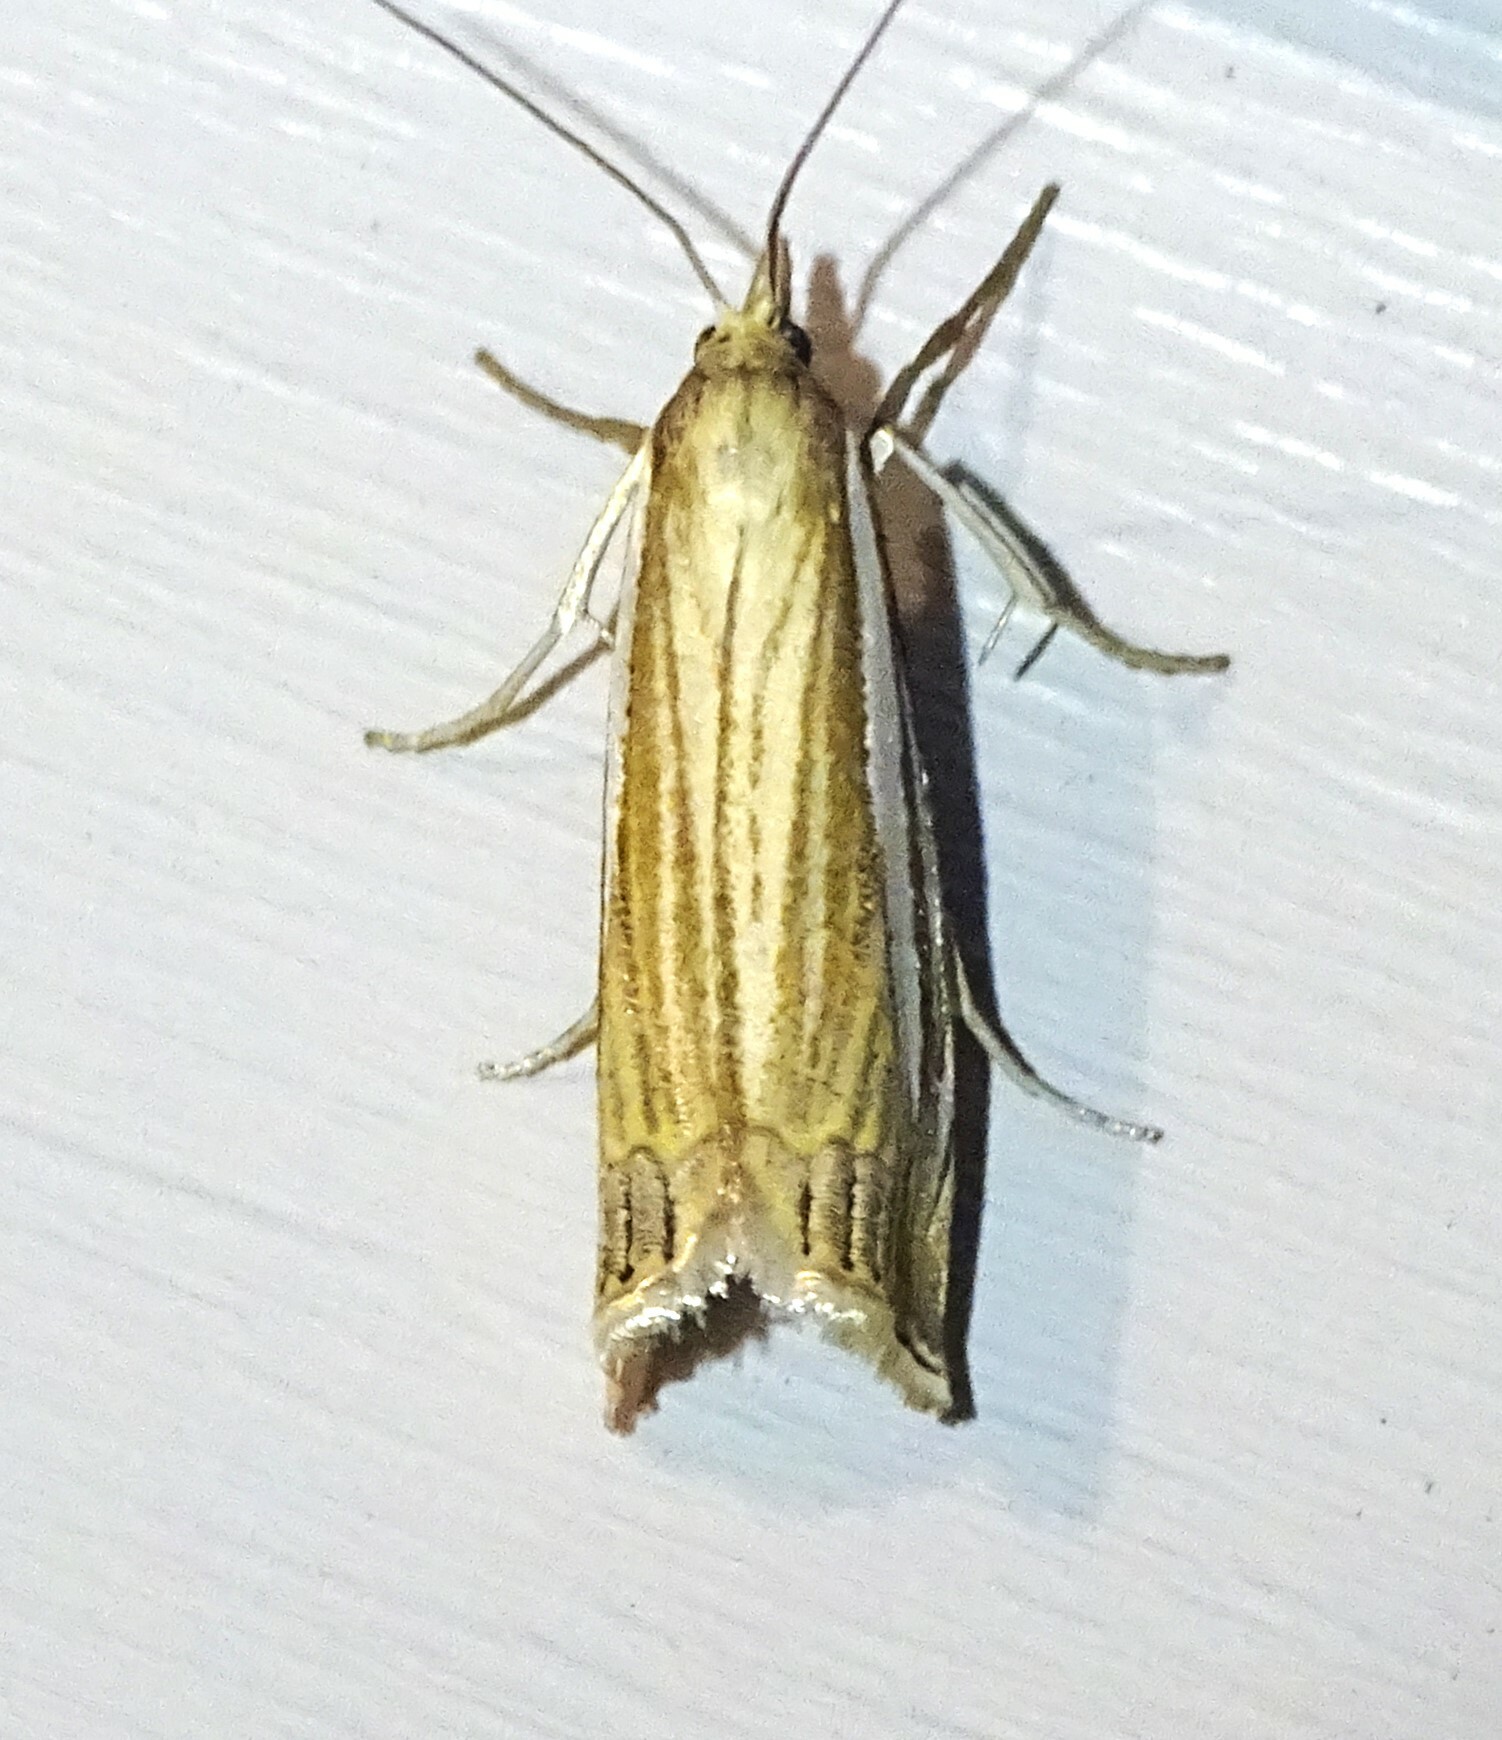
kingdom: Animalia
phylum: Arthropoda
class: Insecta
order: Lepidoptera
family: Crambidae
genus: Crambus
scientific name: Crambus laqueatellus
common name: Eastern grass-veneer
